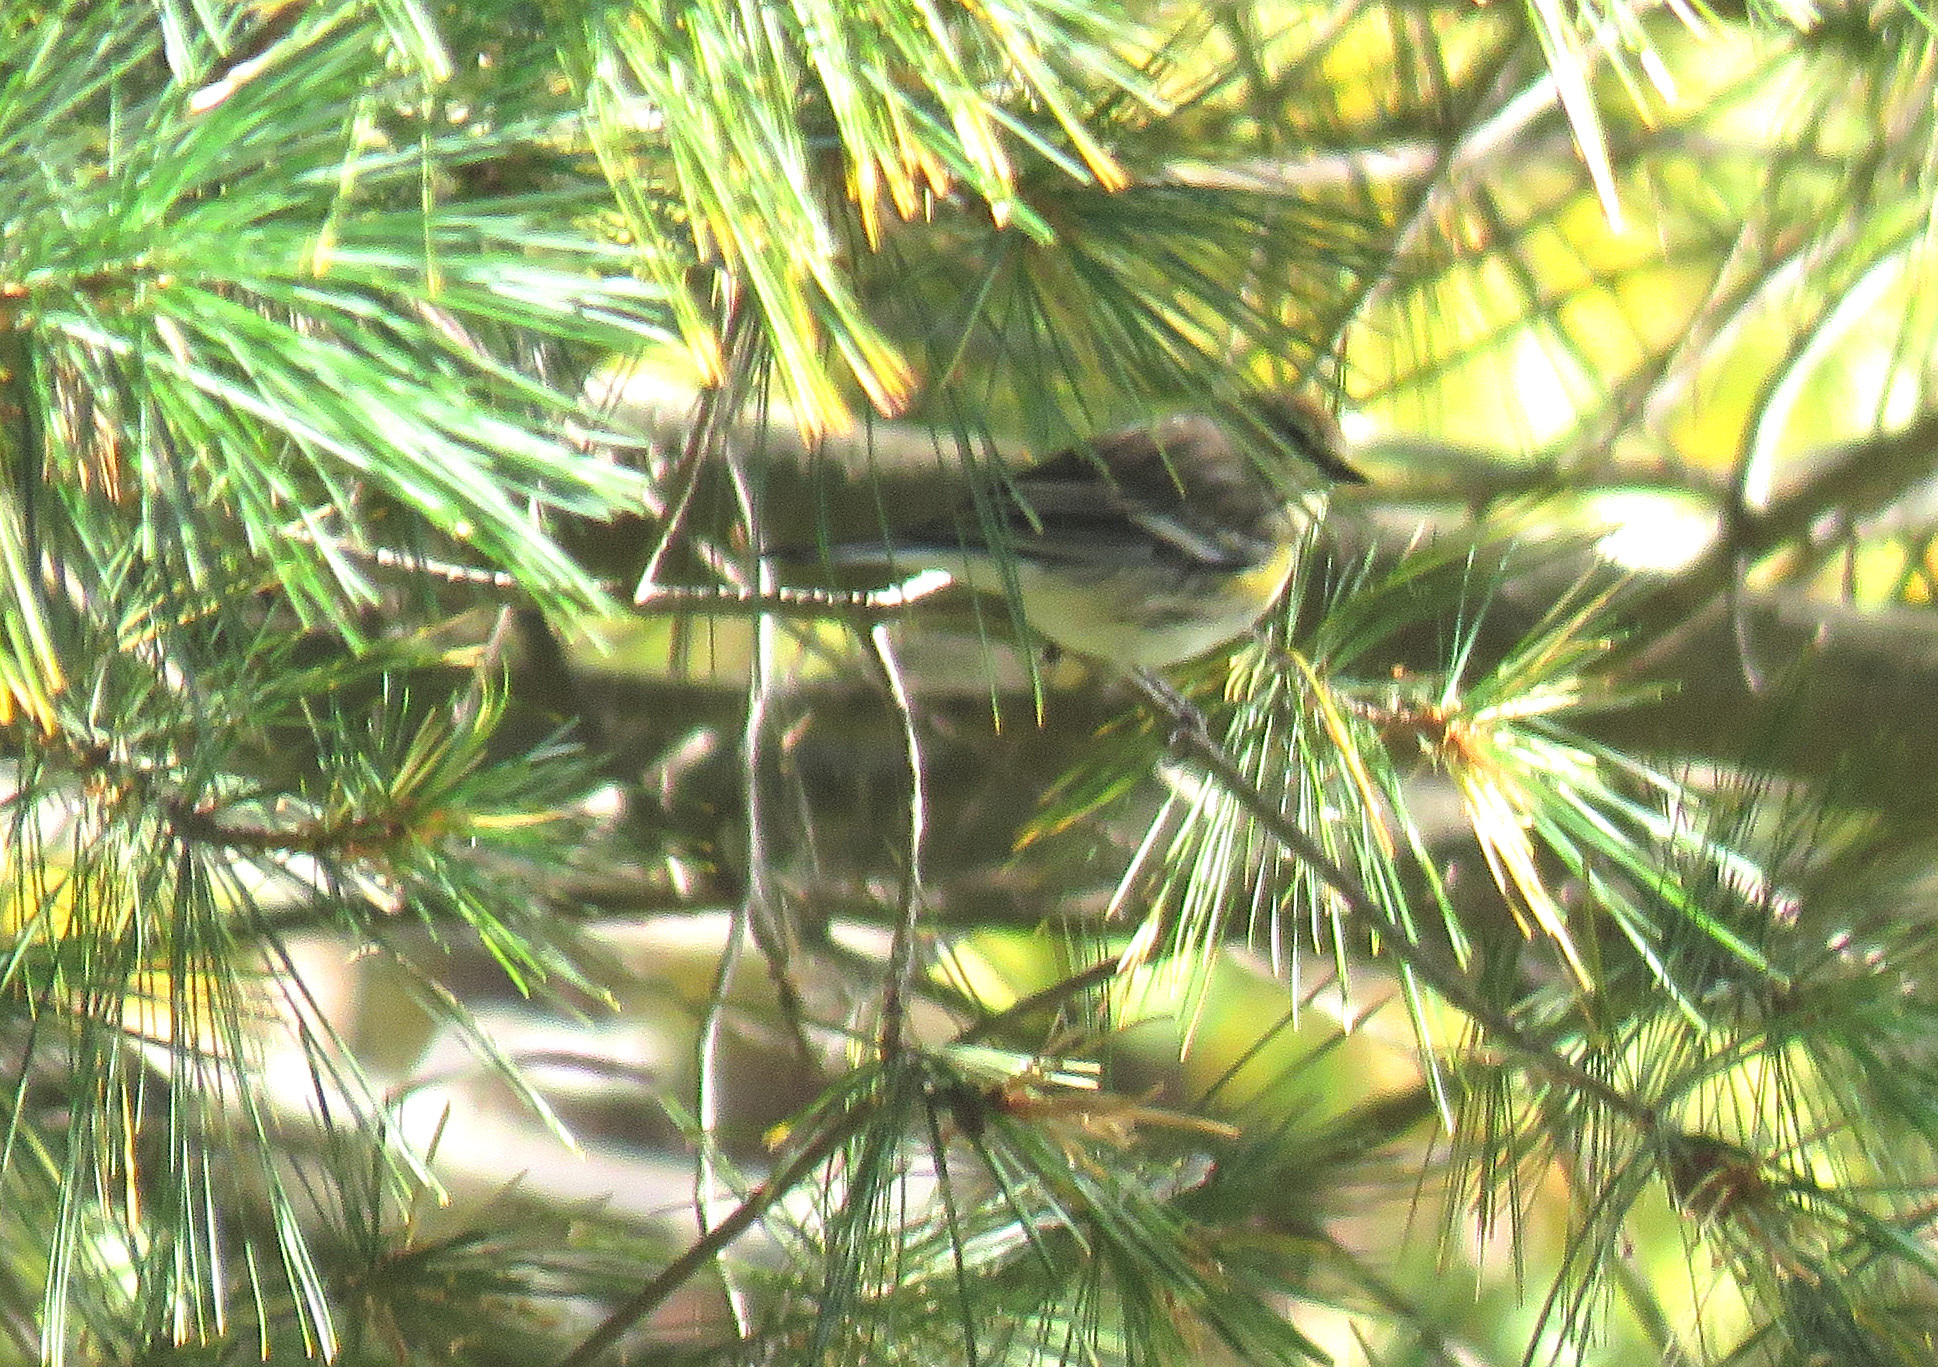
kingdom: Animalia
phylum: Chordata
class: Aves
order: Passeriformes
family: Parulidae
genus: Setophaga
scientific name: Setophaga coronata
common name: Myrtle warbler
